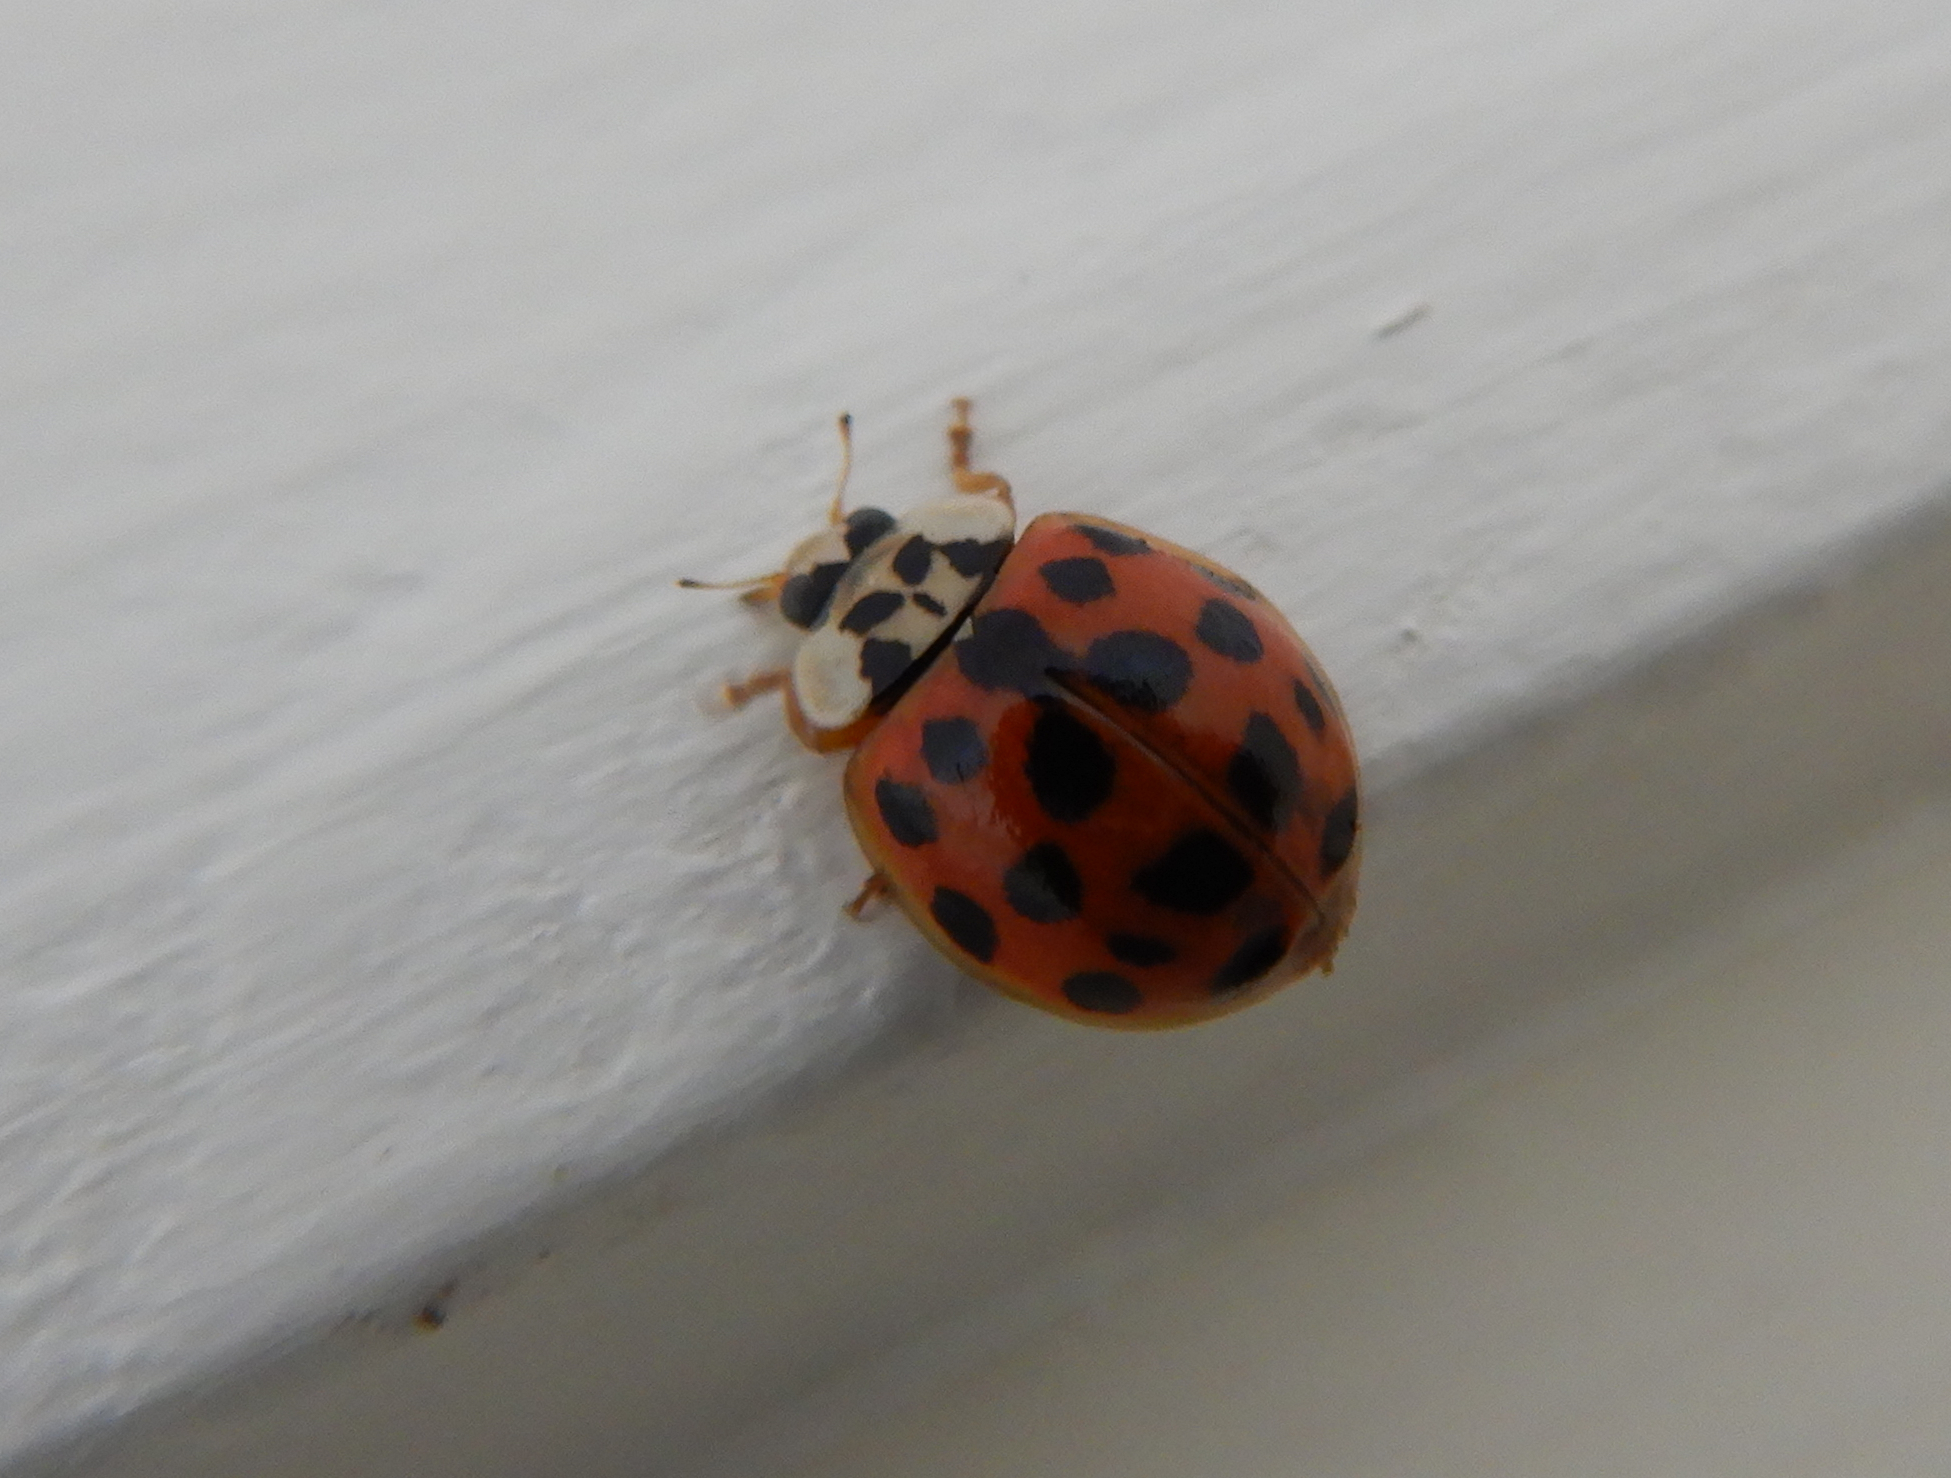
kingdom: Animalia
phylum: Arthropoda
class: Insecta
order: Coleoptera
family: Coccinellidae
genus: Harmonia
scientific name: Harmonia axyridis
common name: Harlequin ladybird
